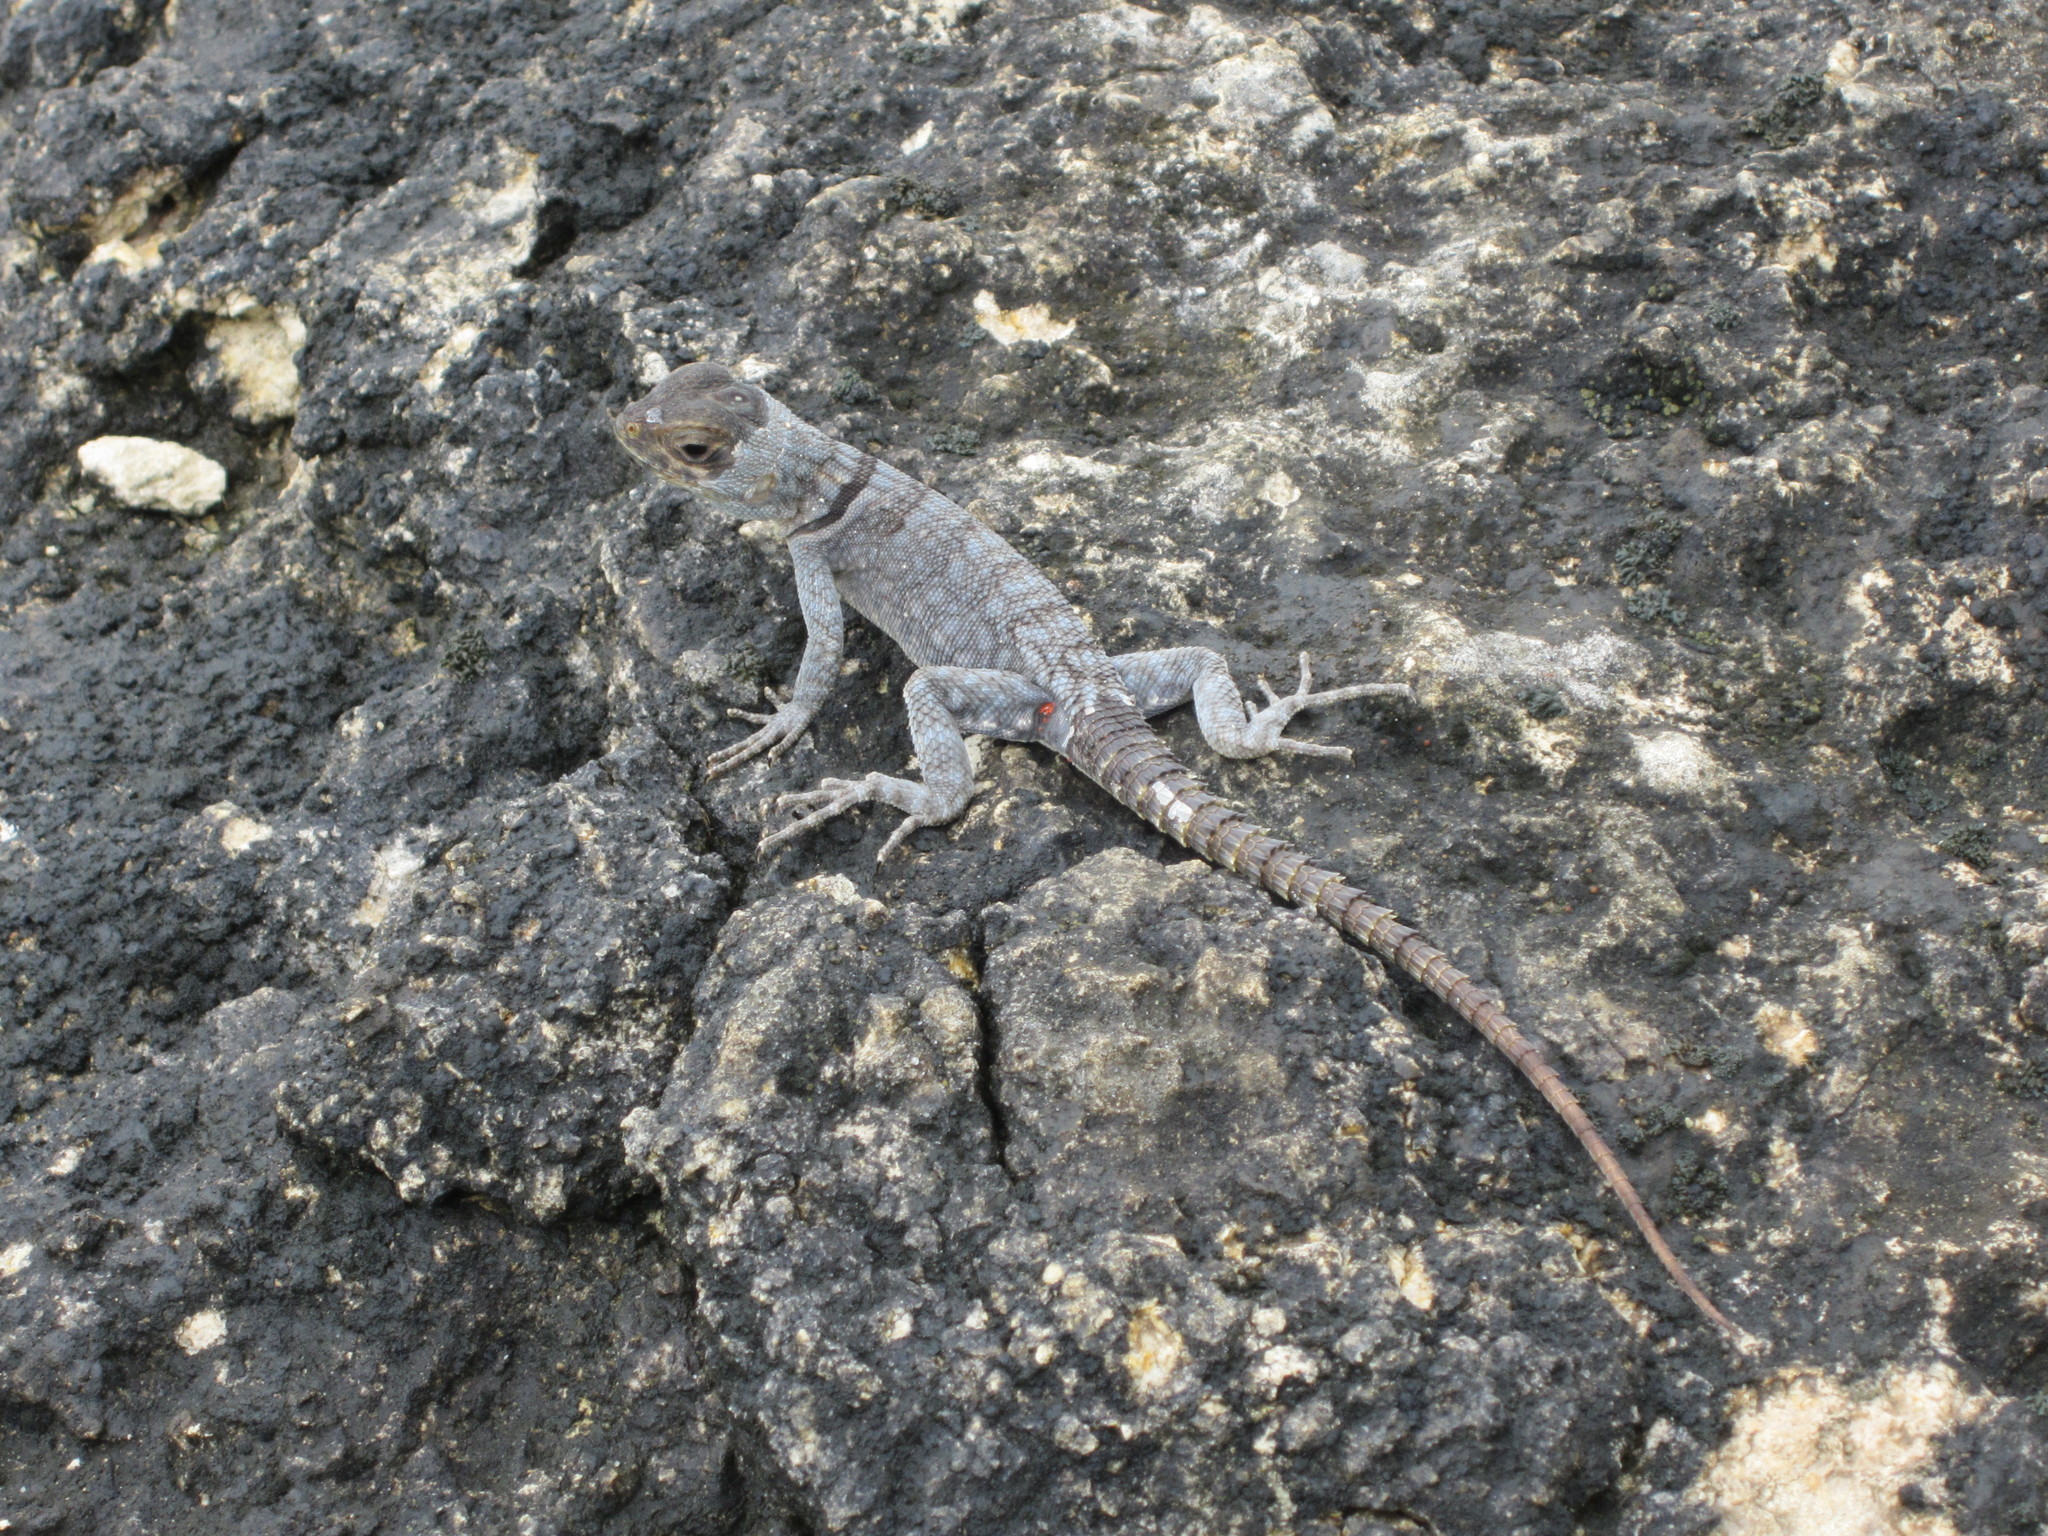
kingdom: Animalia
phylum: Chordata
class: Squamata
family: Opluridae
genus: Oplurus
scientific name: Oplurus cyclurus
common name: Merrem's madagascar swift
